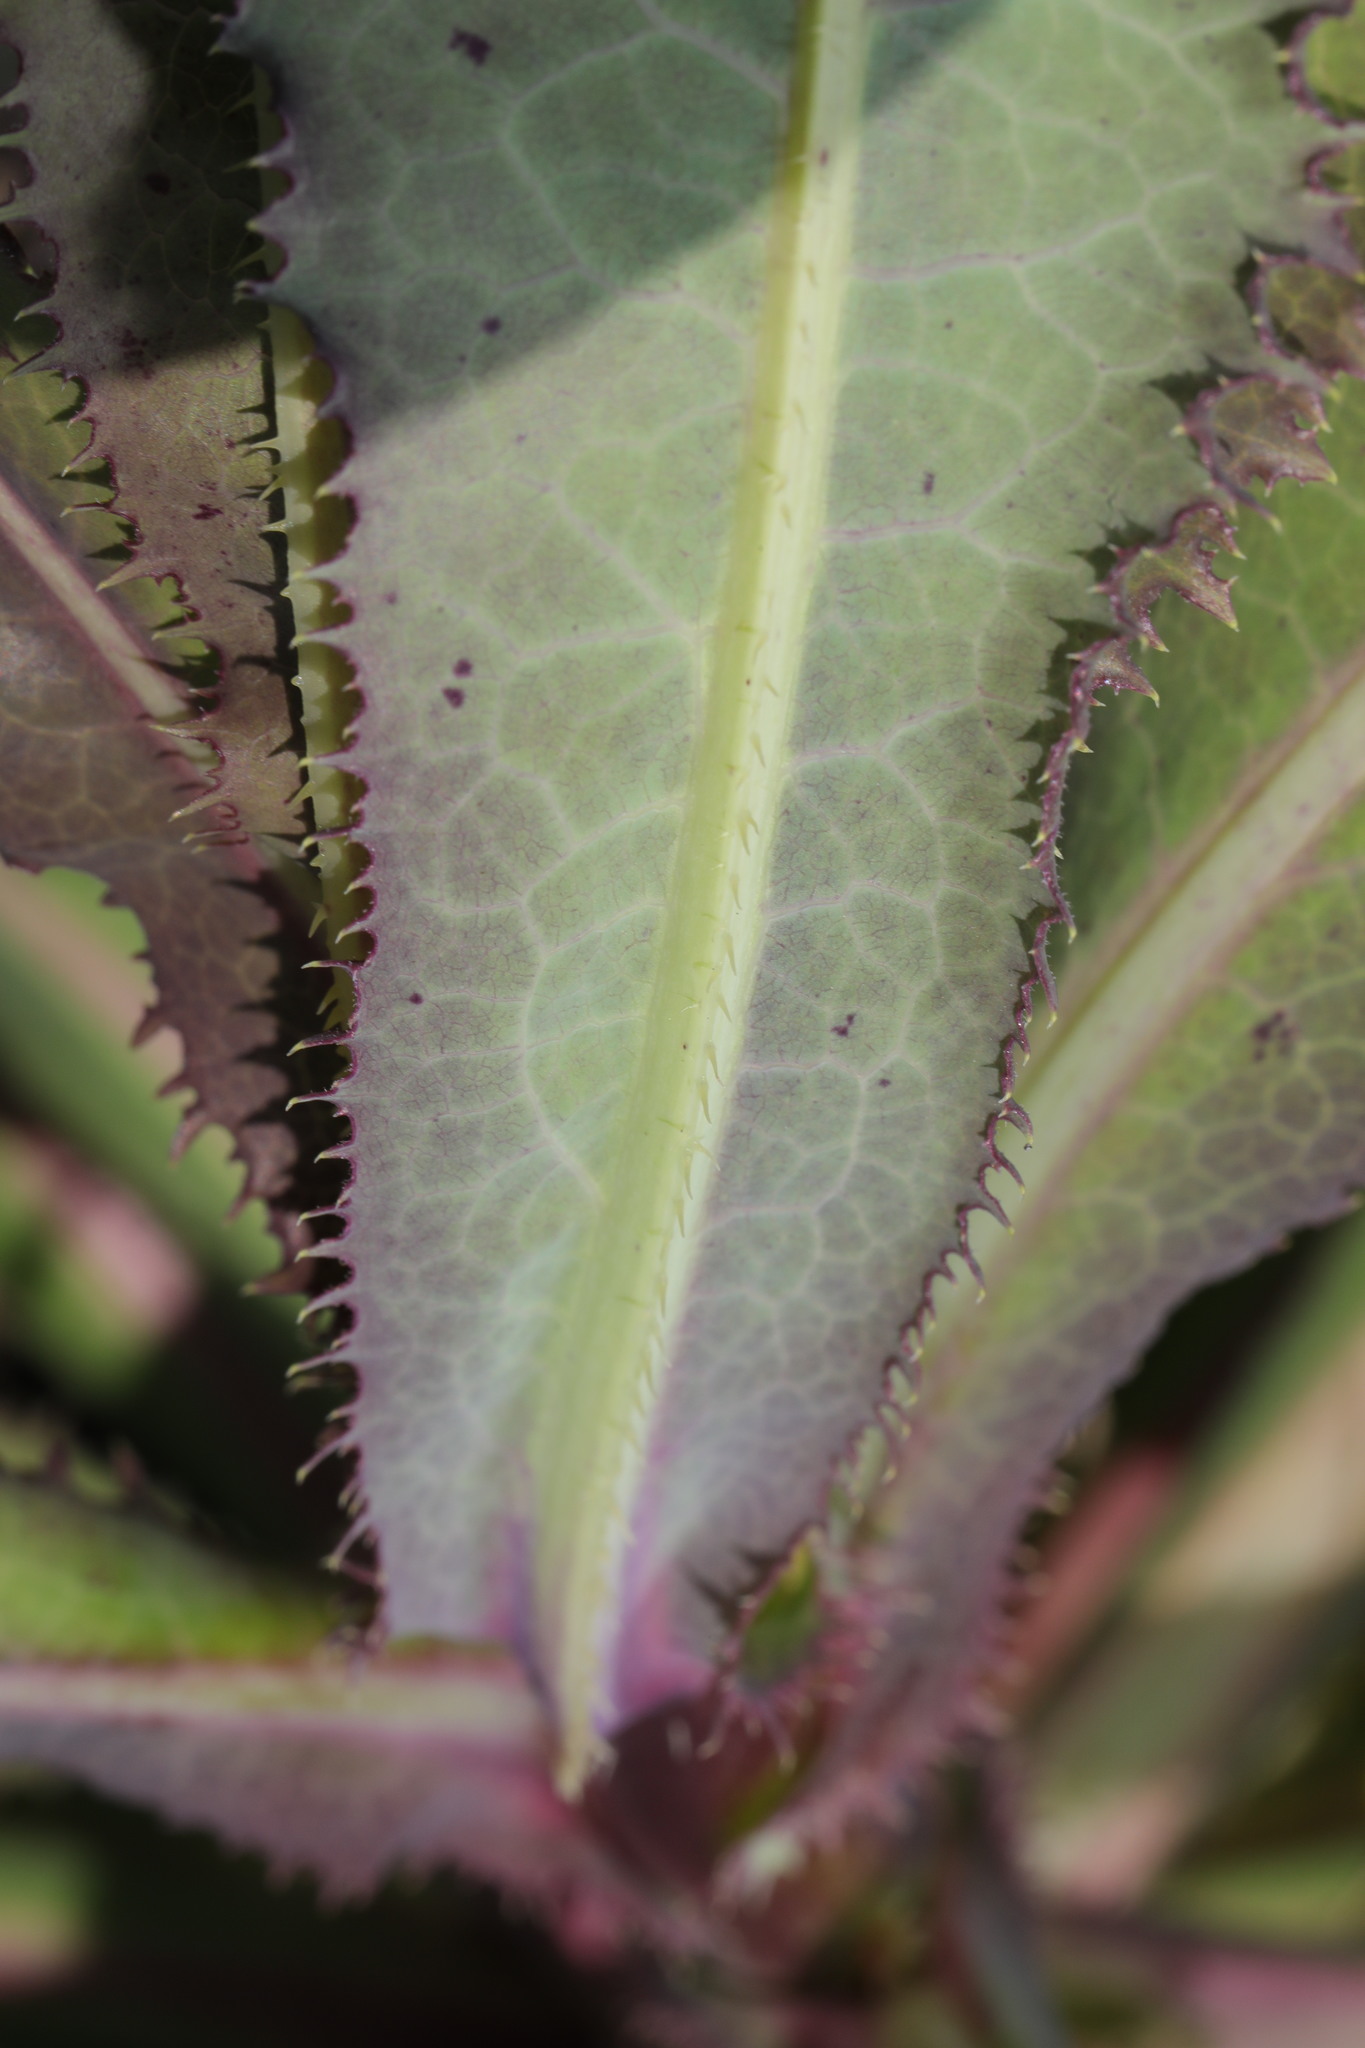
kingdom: Plantae
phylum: Tracheophyta
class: Magnoliopsida
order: Asterales
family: Asteraceae
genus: Lactuca
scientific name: Lactuca serriola
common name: Prickly lettuce
